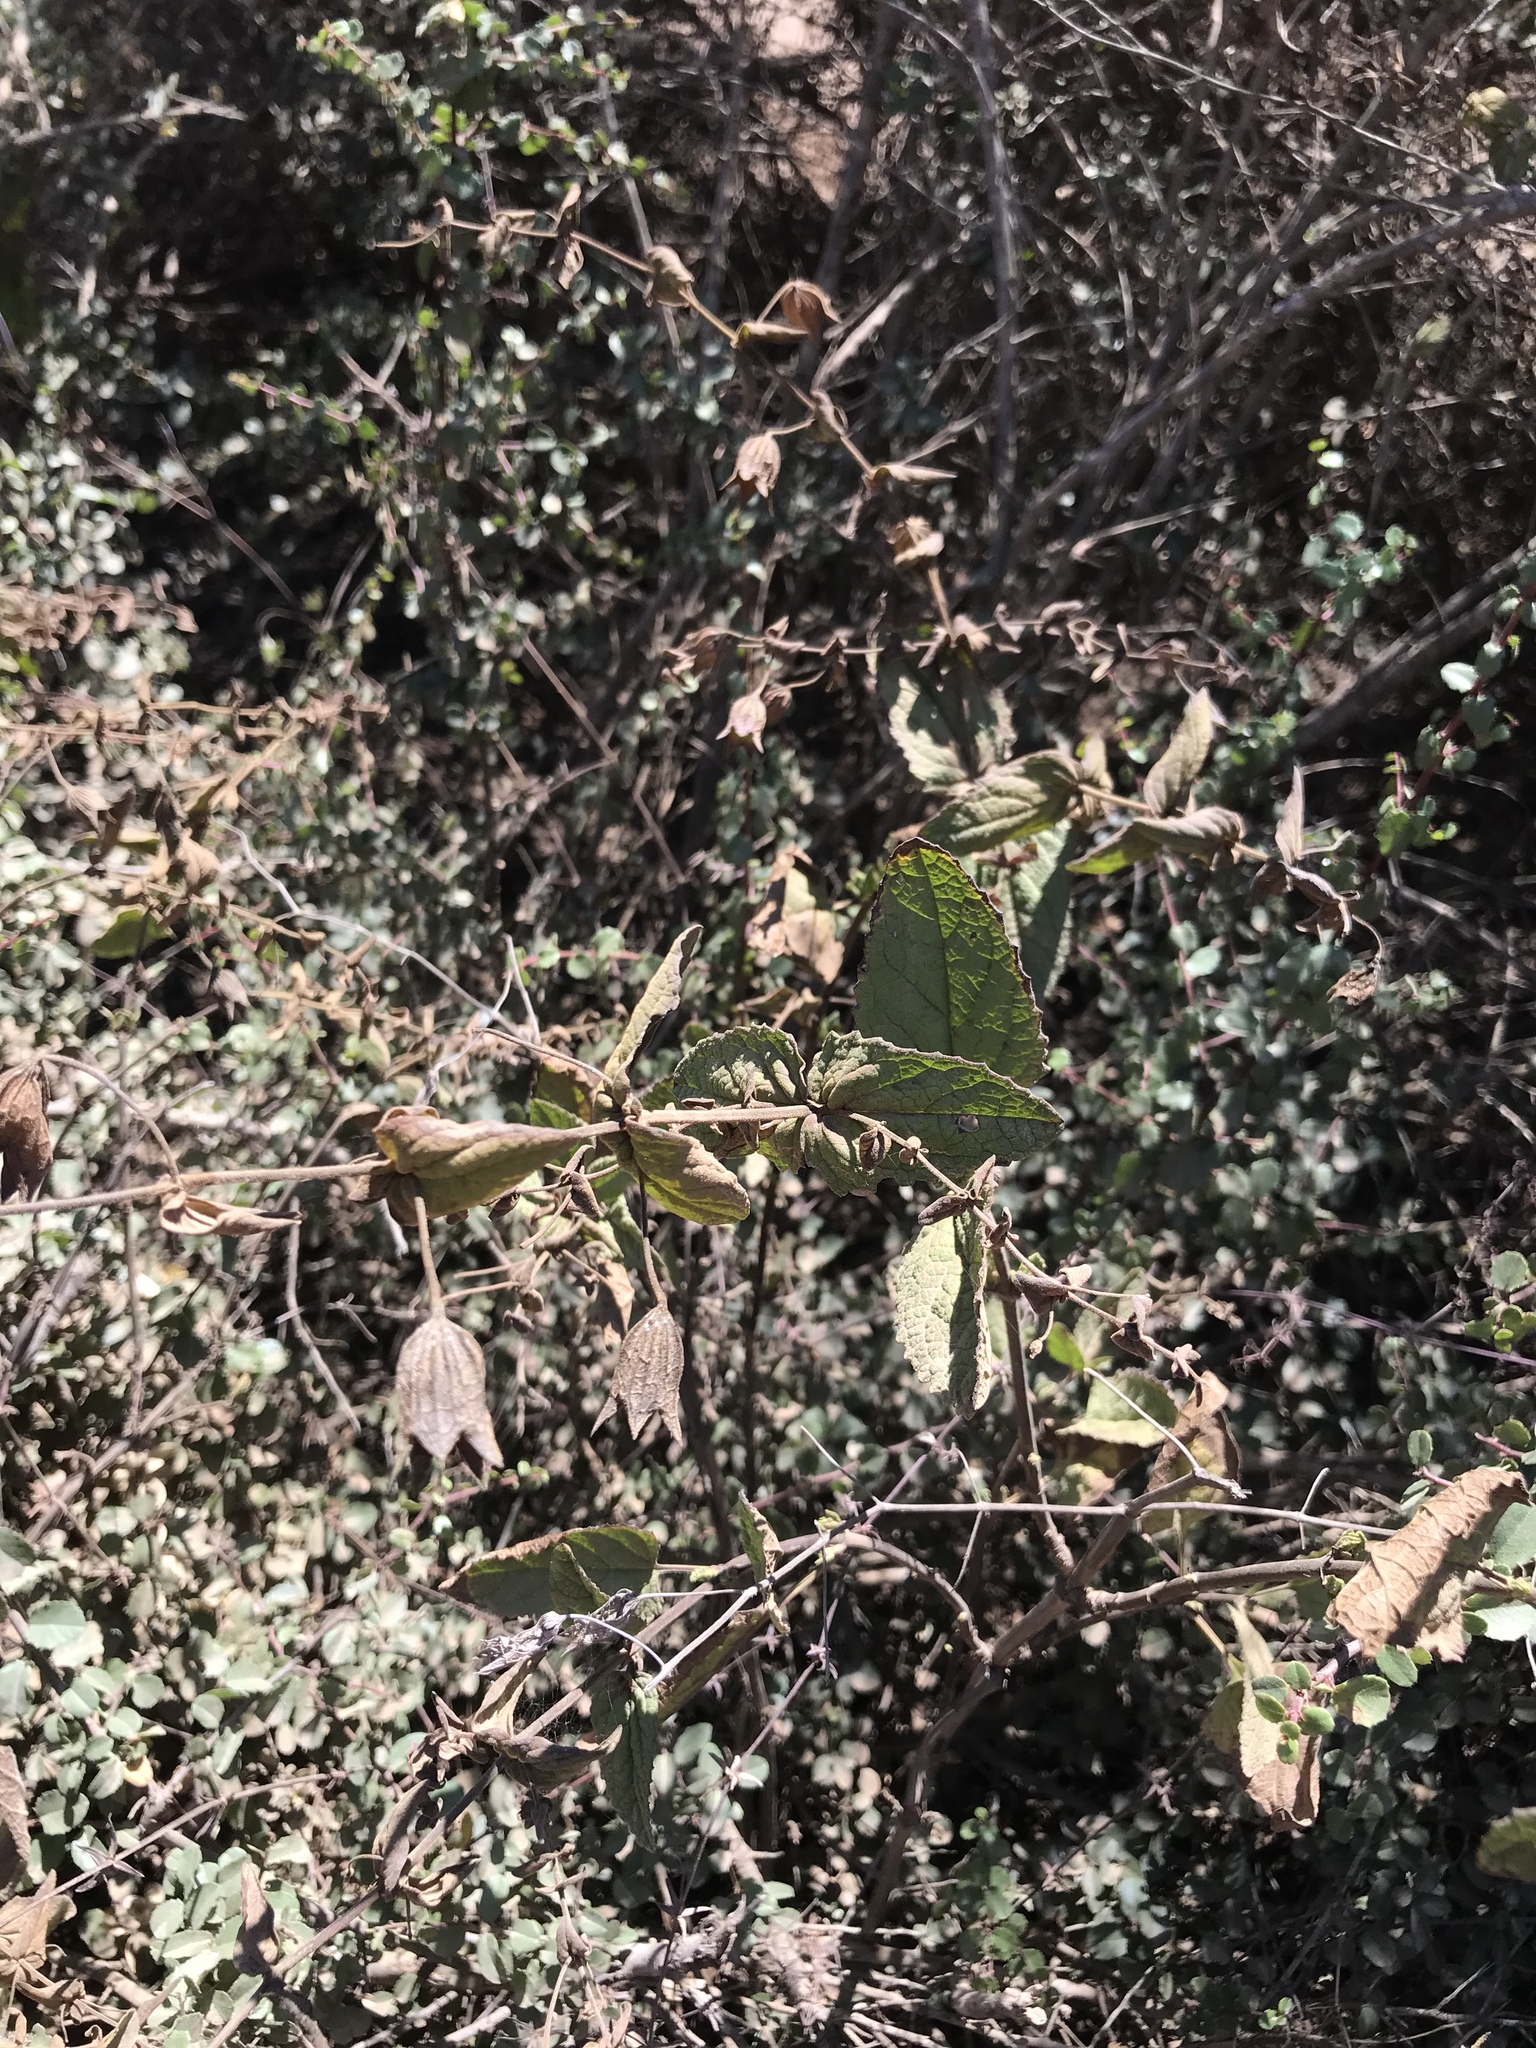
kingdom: Plantae
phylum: Tracheophyta
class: Magnoliopsida
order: Lamiales
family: Lamiaceae
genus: Lepechinia
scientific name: Lepechinia cardiophylla
